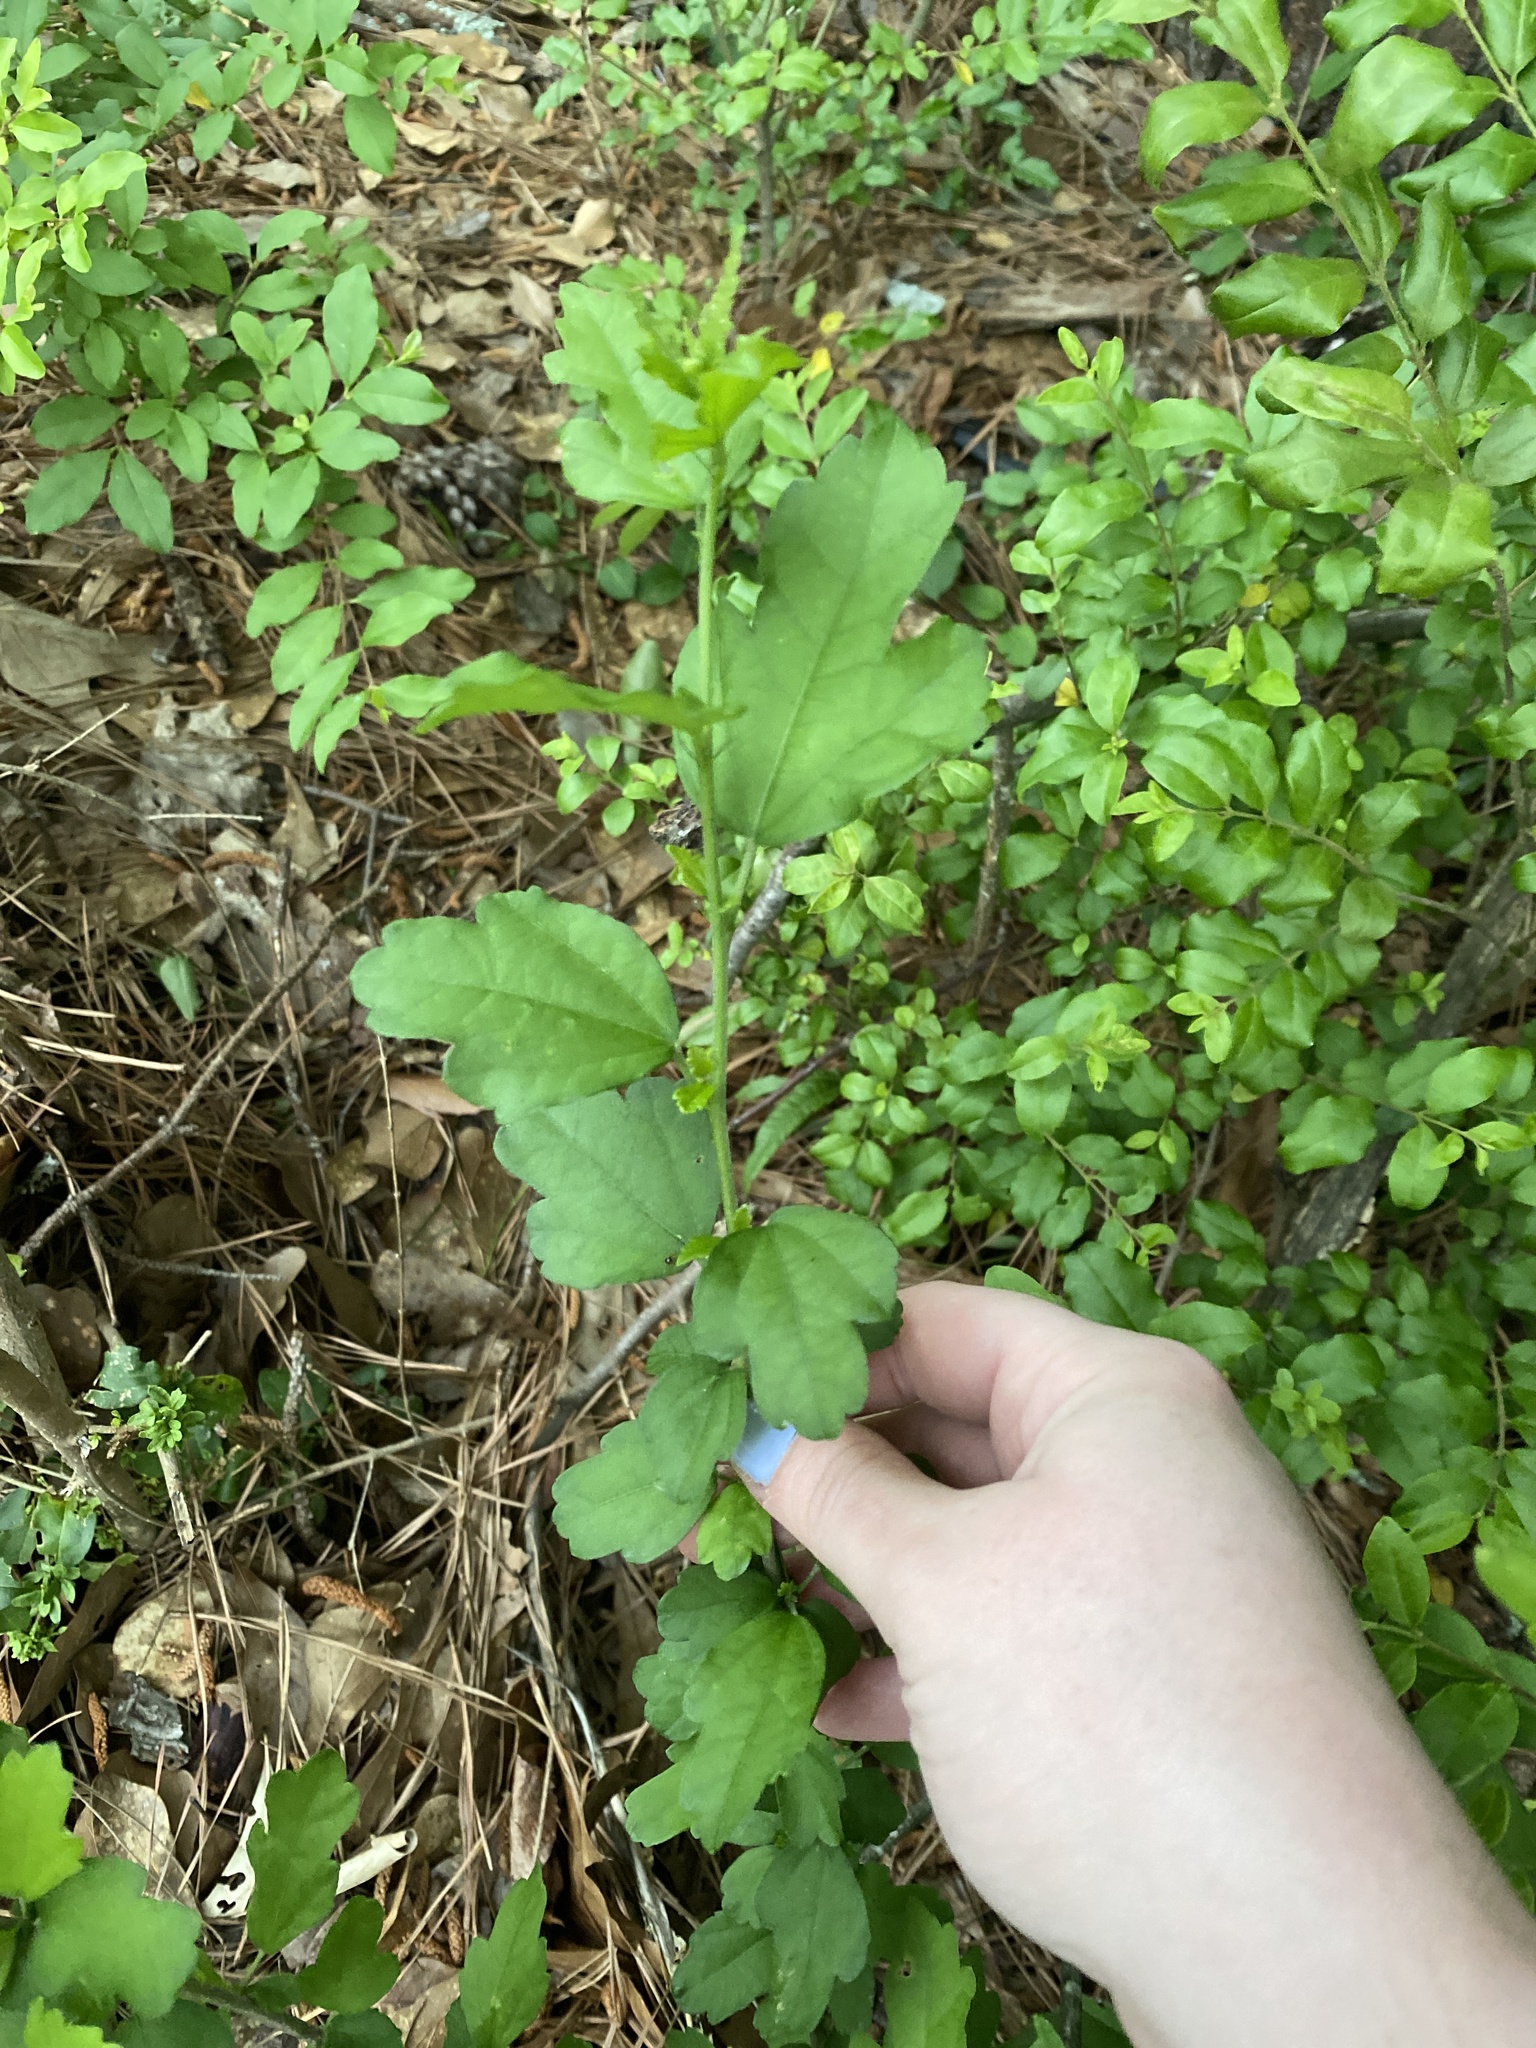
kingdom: Plantae
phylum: Tracheophyta
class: Magnoliopsida
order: Malvales
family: Malvaceae
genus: Hibiscus
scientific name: Hibiscus syriacus
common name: Syrian ketmia
